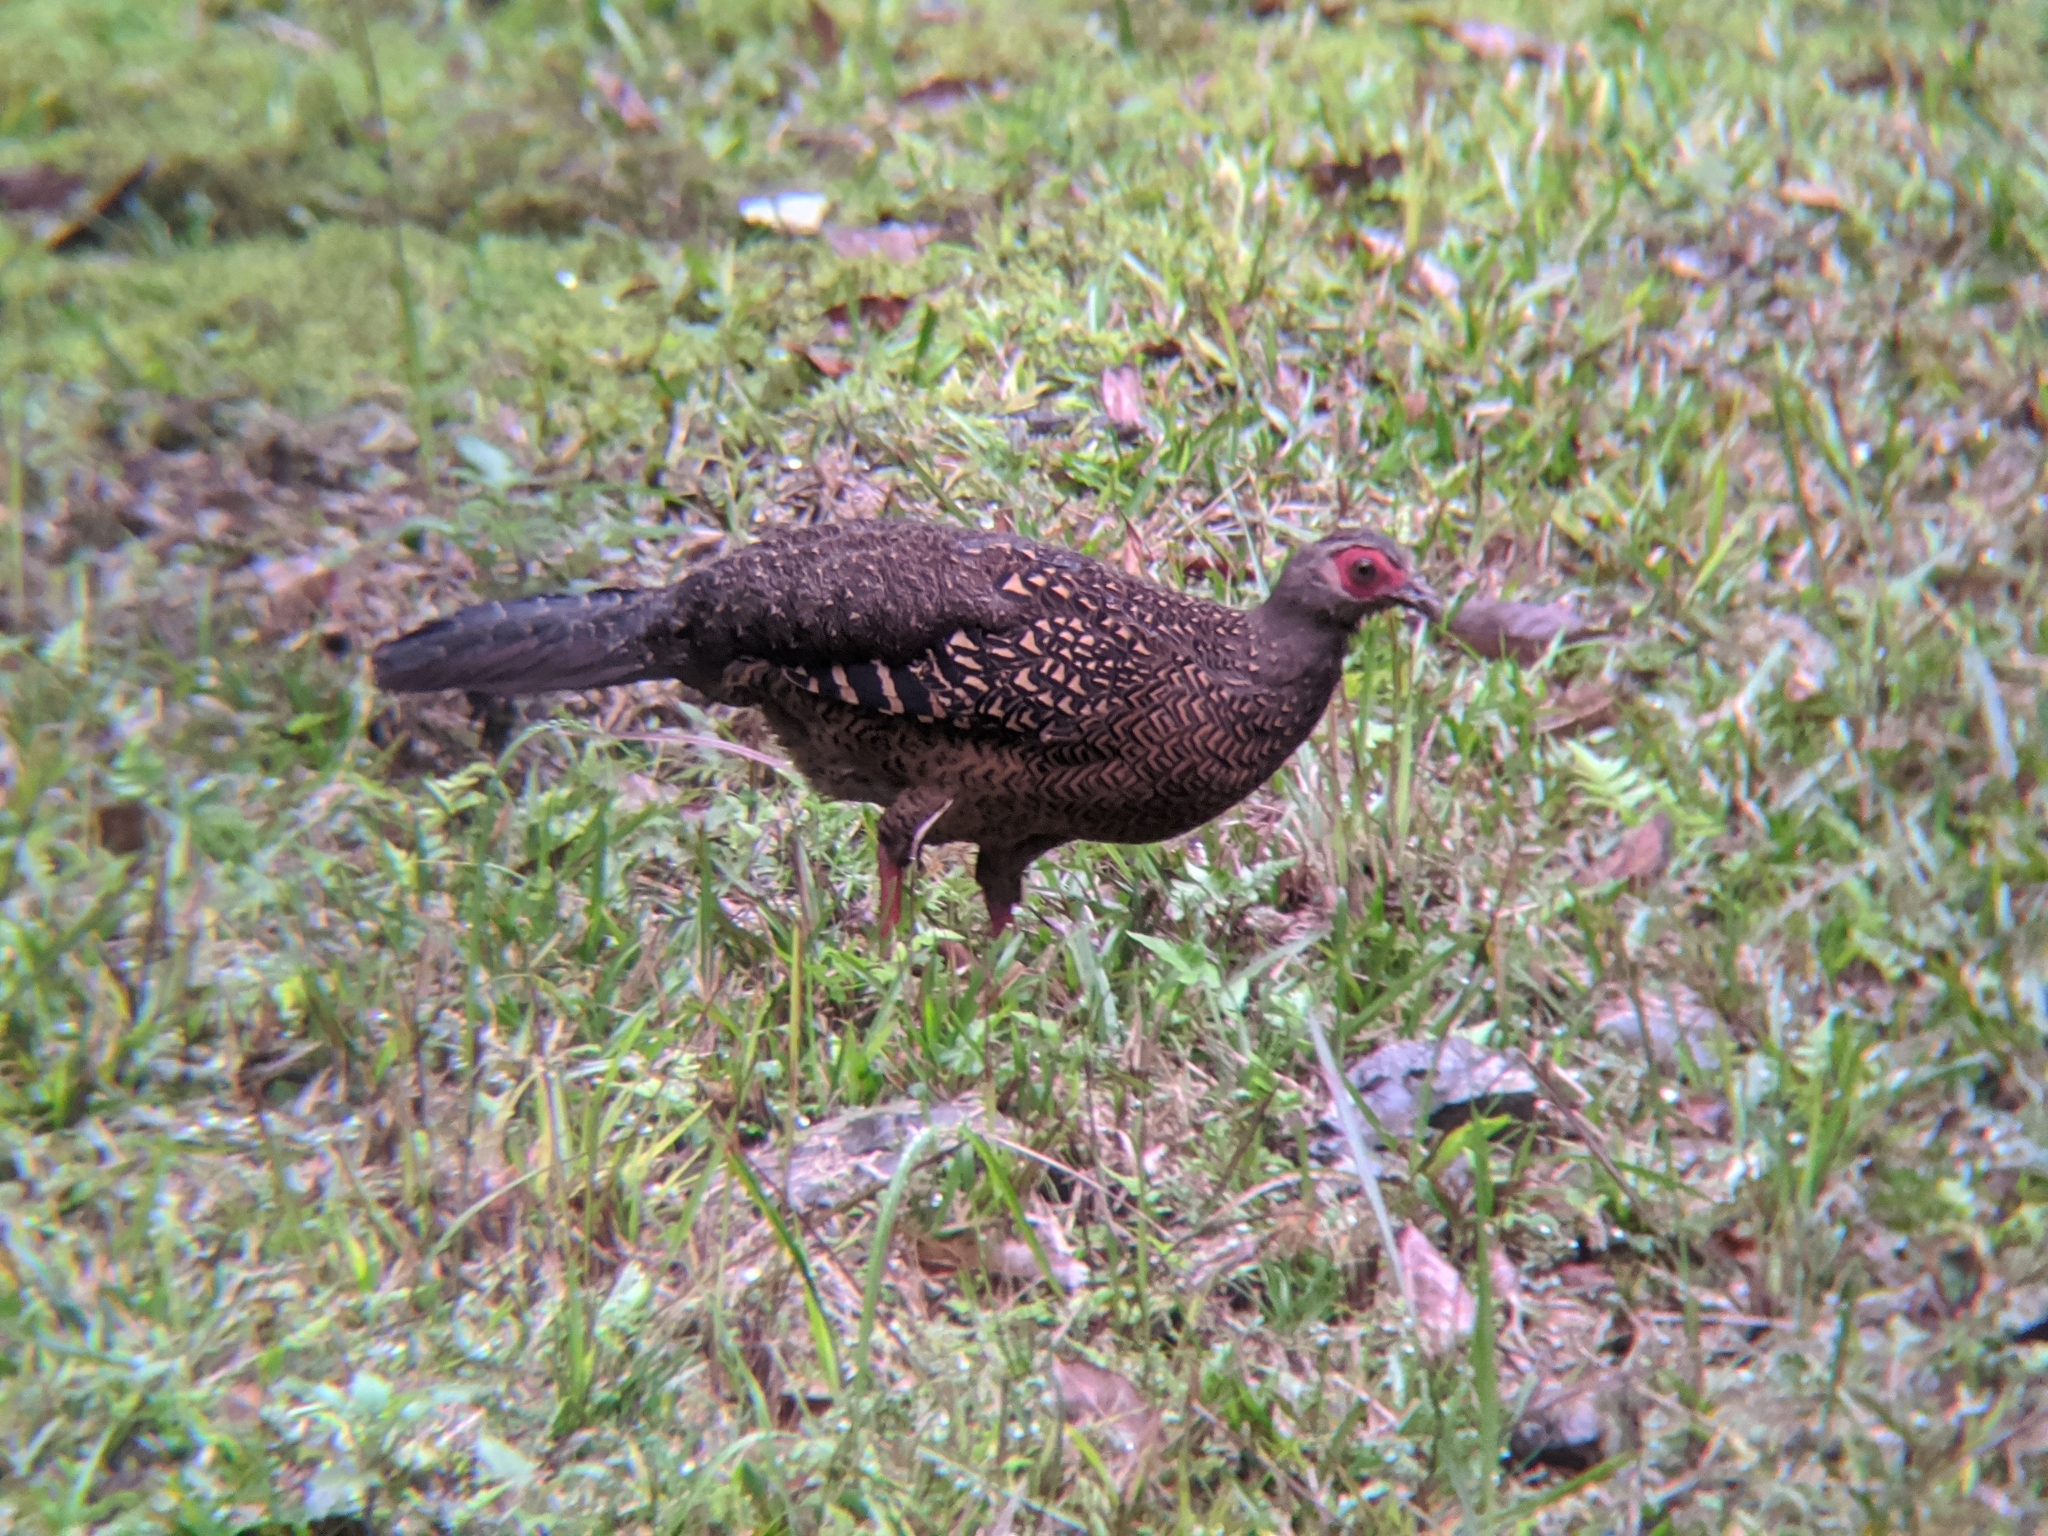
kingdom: Animalia
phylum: Chordata
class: Aves
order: Galliformes
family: Phasianidae
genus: Lophura
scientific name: Lophura swinhoii
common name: Swinhoe's pheasant
